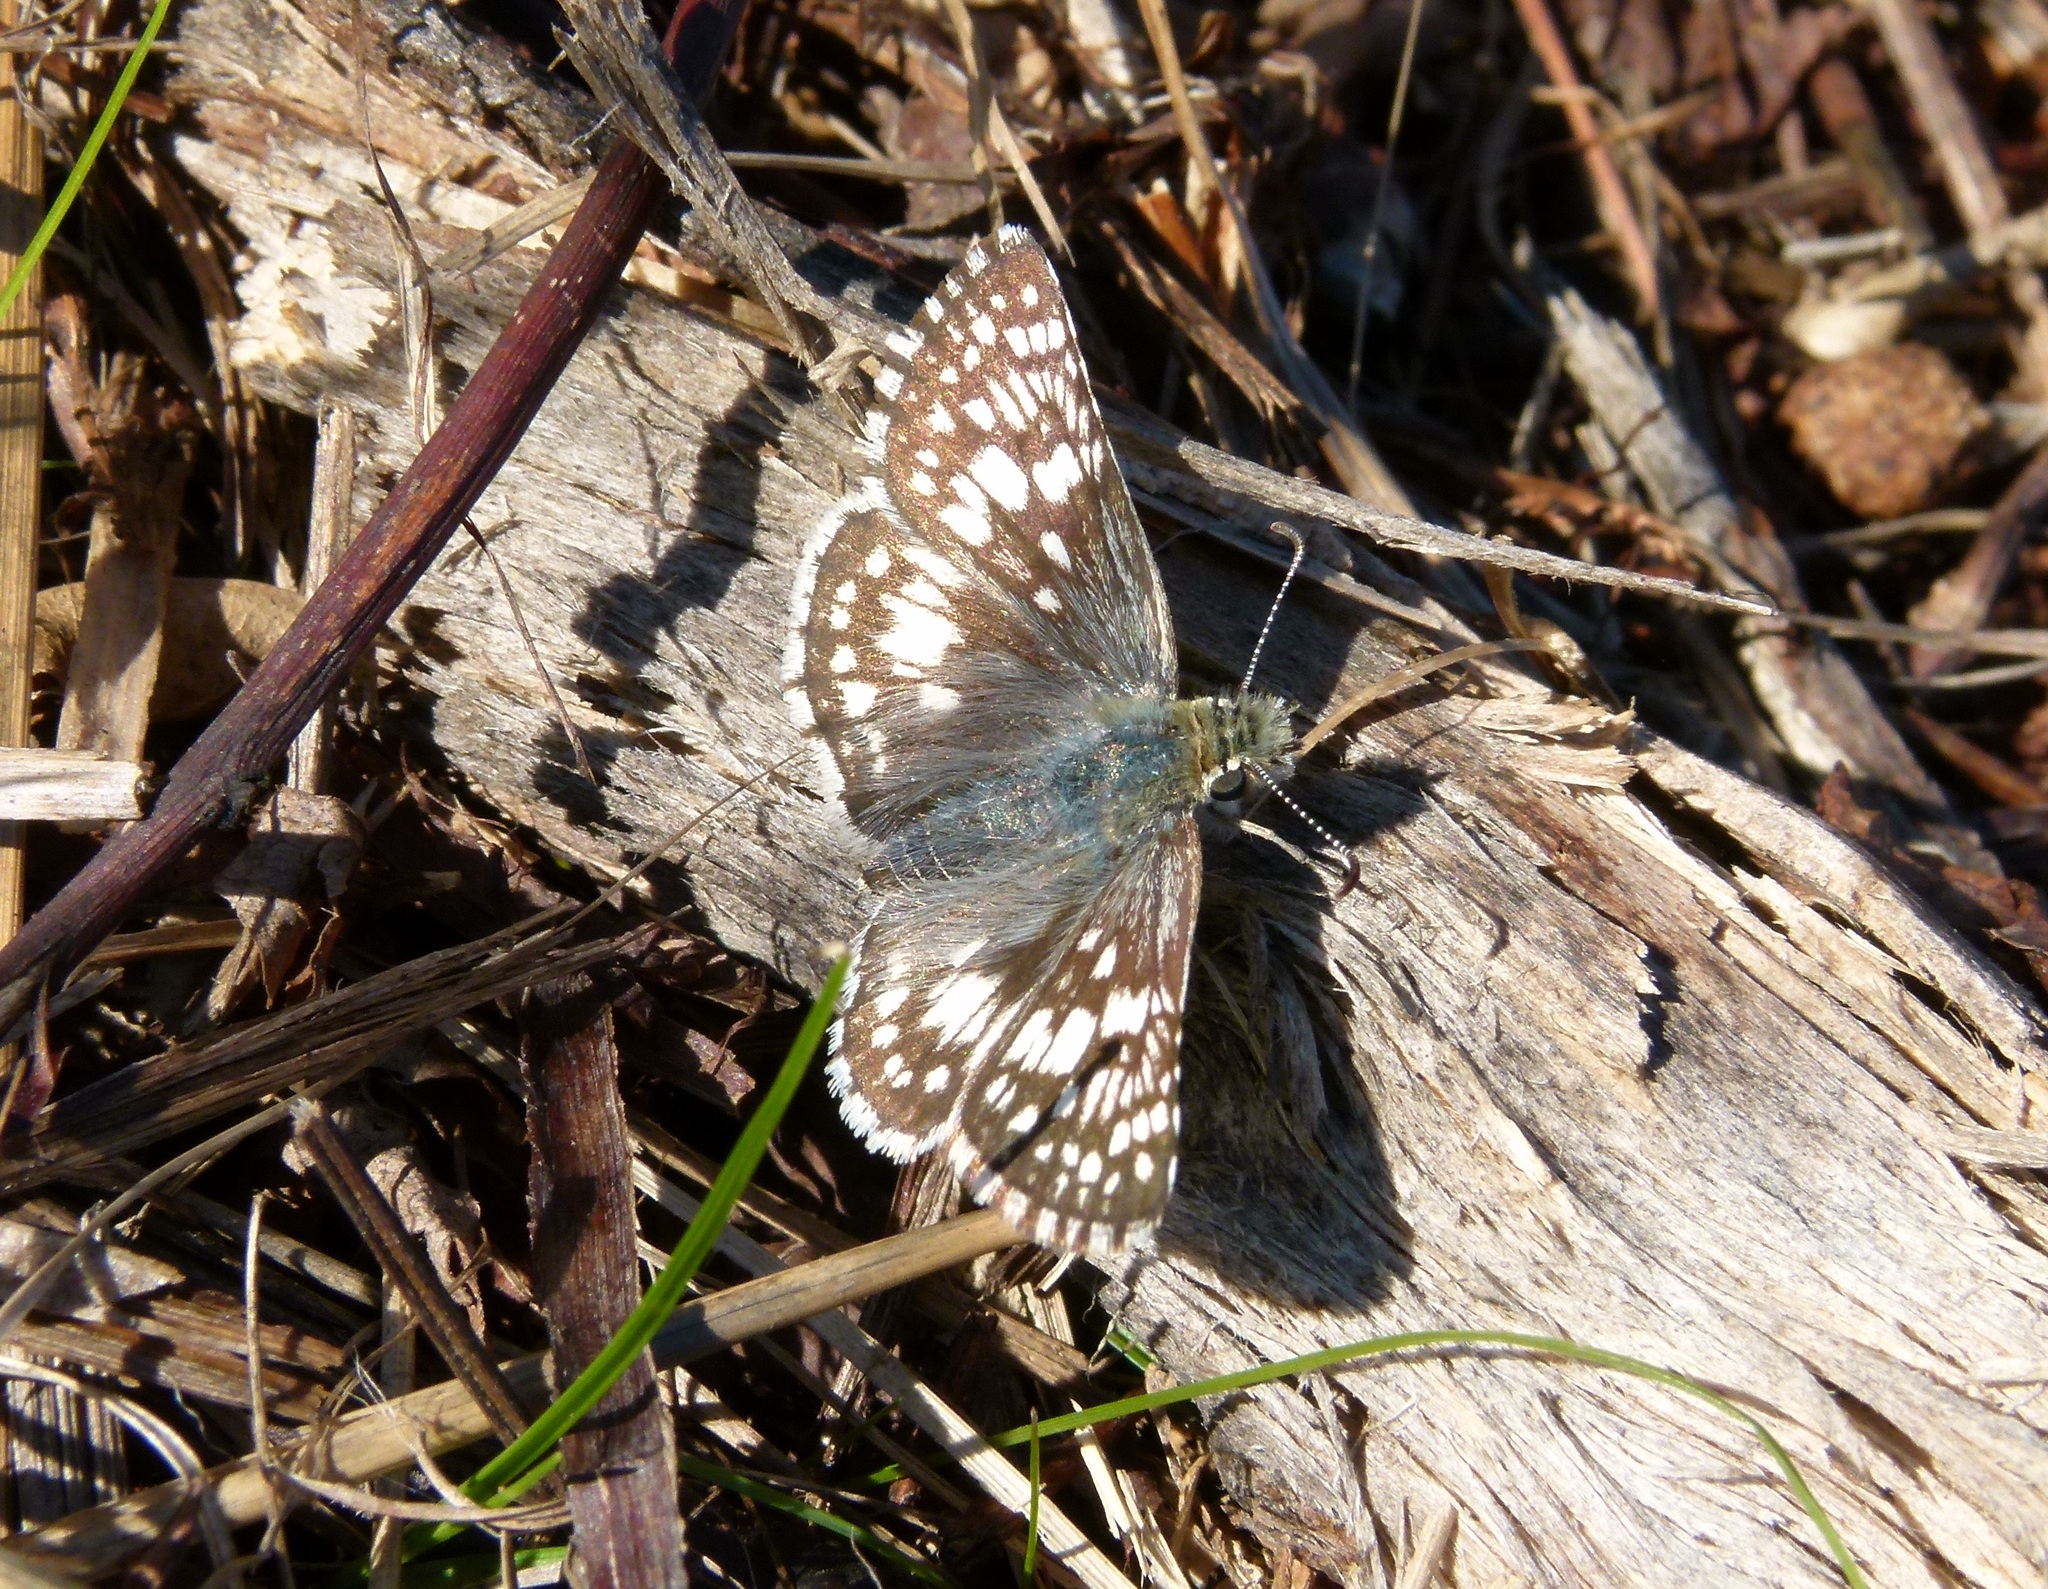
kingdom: Animalia
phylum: Arthropoda
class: Insecta
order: Lepidoptera
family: Hesperiidae
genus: Burnsius
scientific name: Burnsius communis
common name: Common checkered-skipper
